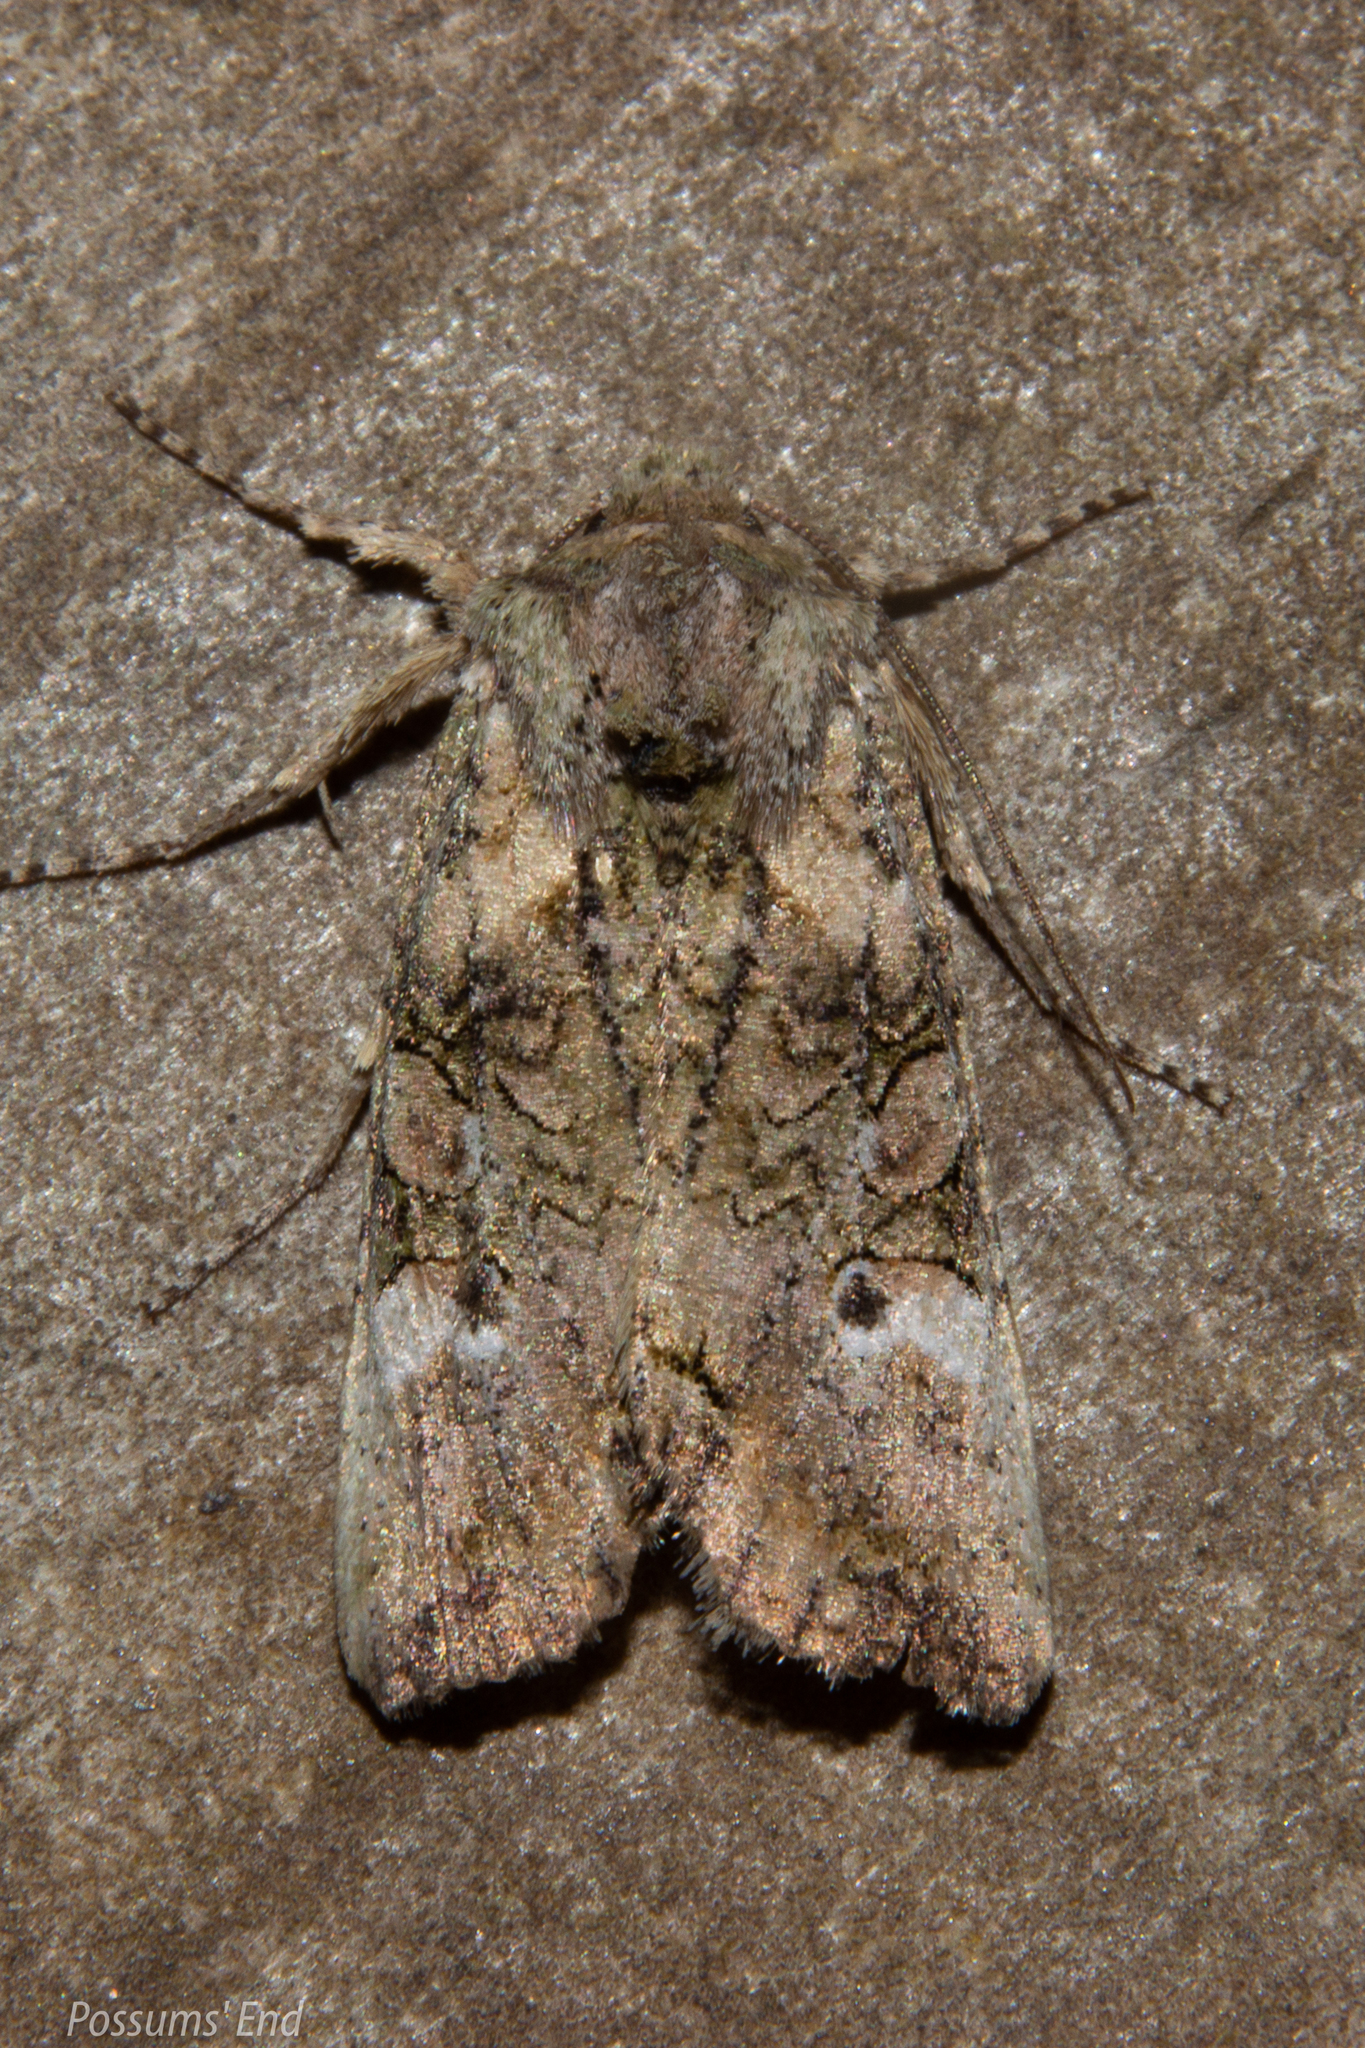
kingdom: Animalia
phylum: Arthropoda
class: Insecta
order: Lepidoptera
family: Noctuidae
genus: Meterana
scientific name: Meterana levis
